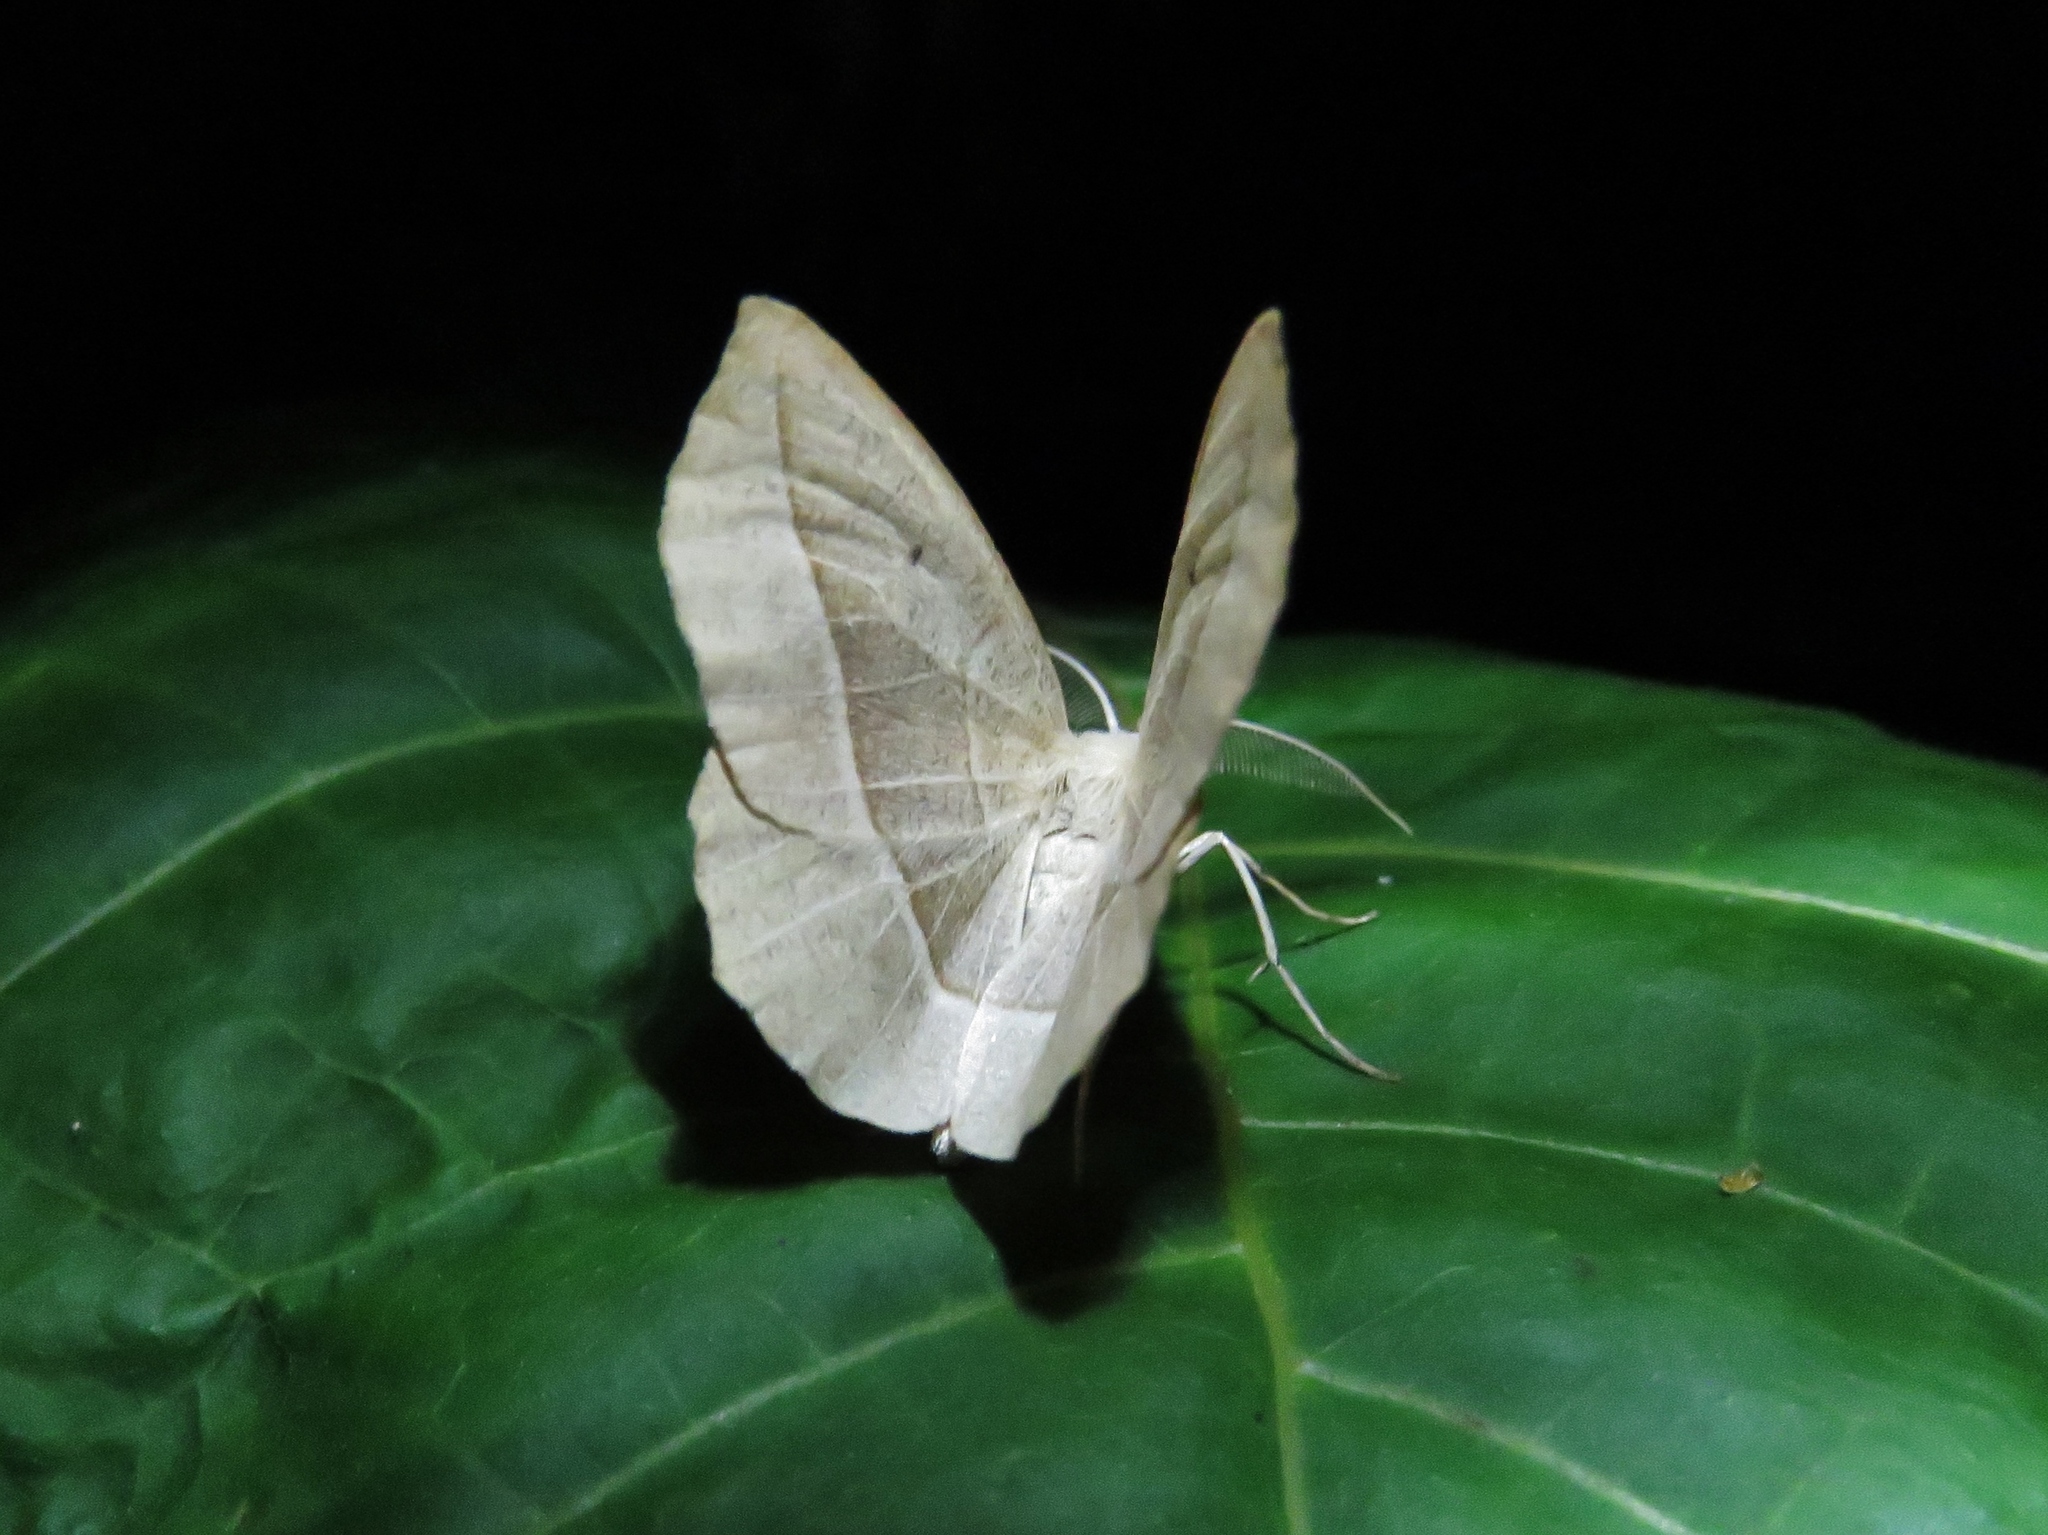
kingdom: Animalia
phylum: Arthropoda
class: Insecta
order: Lepidoptera
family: Geometridae
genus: Eusarca
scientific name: Eusarca confusaria
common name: Confused eusarca
